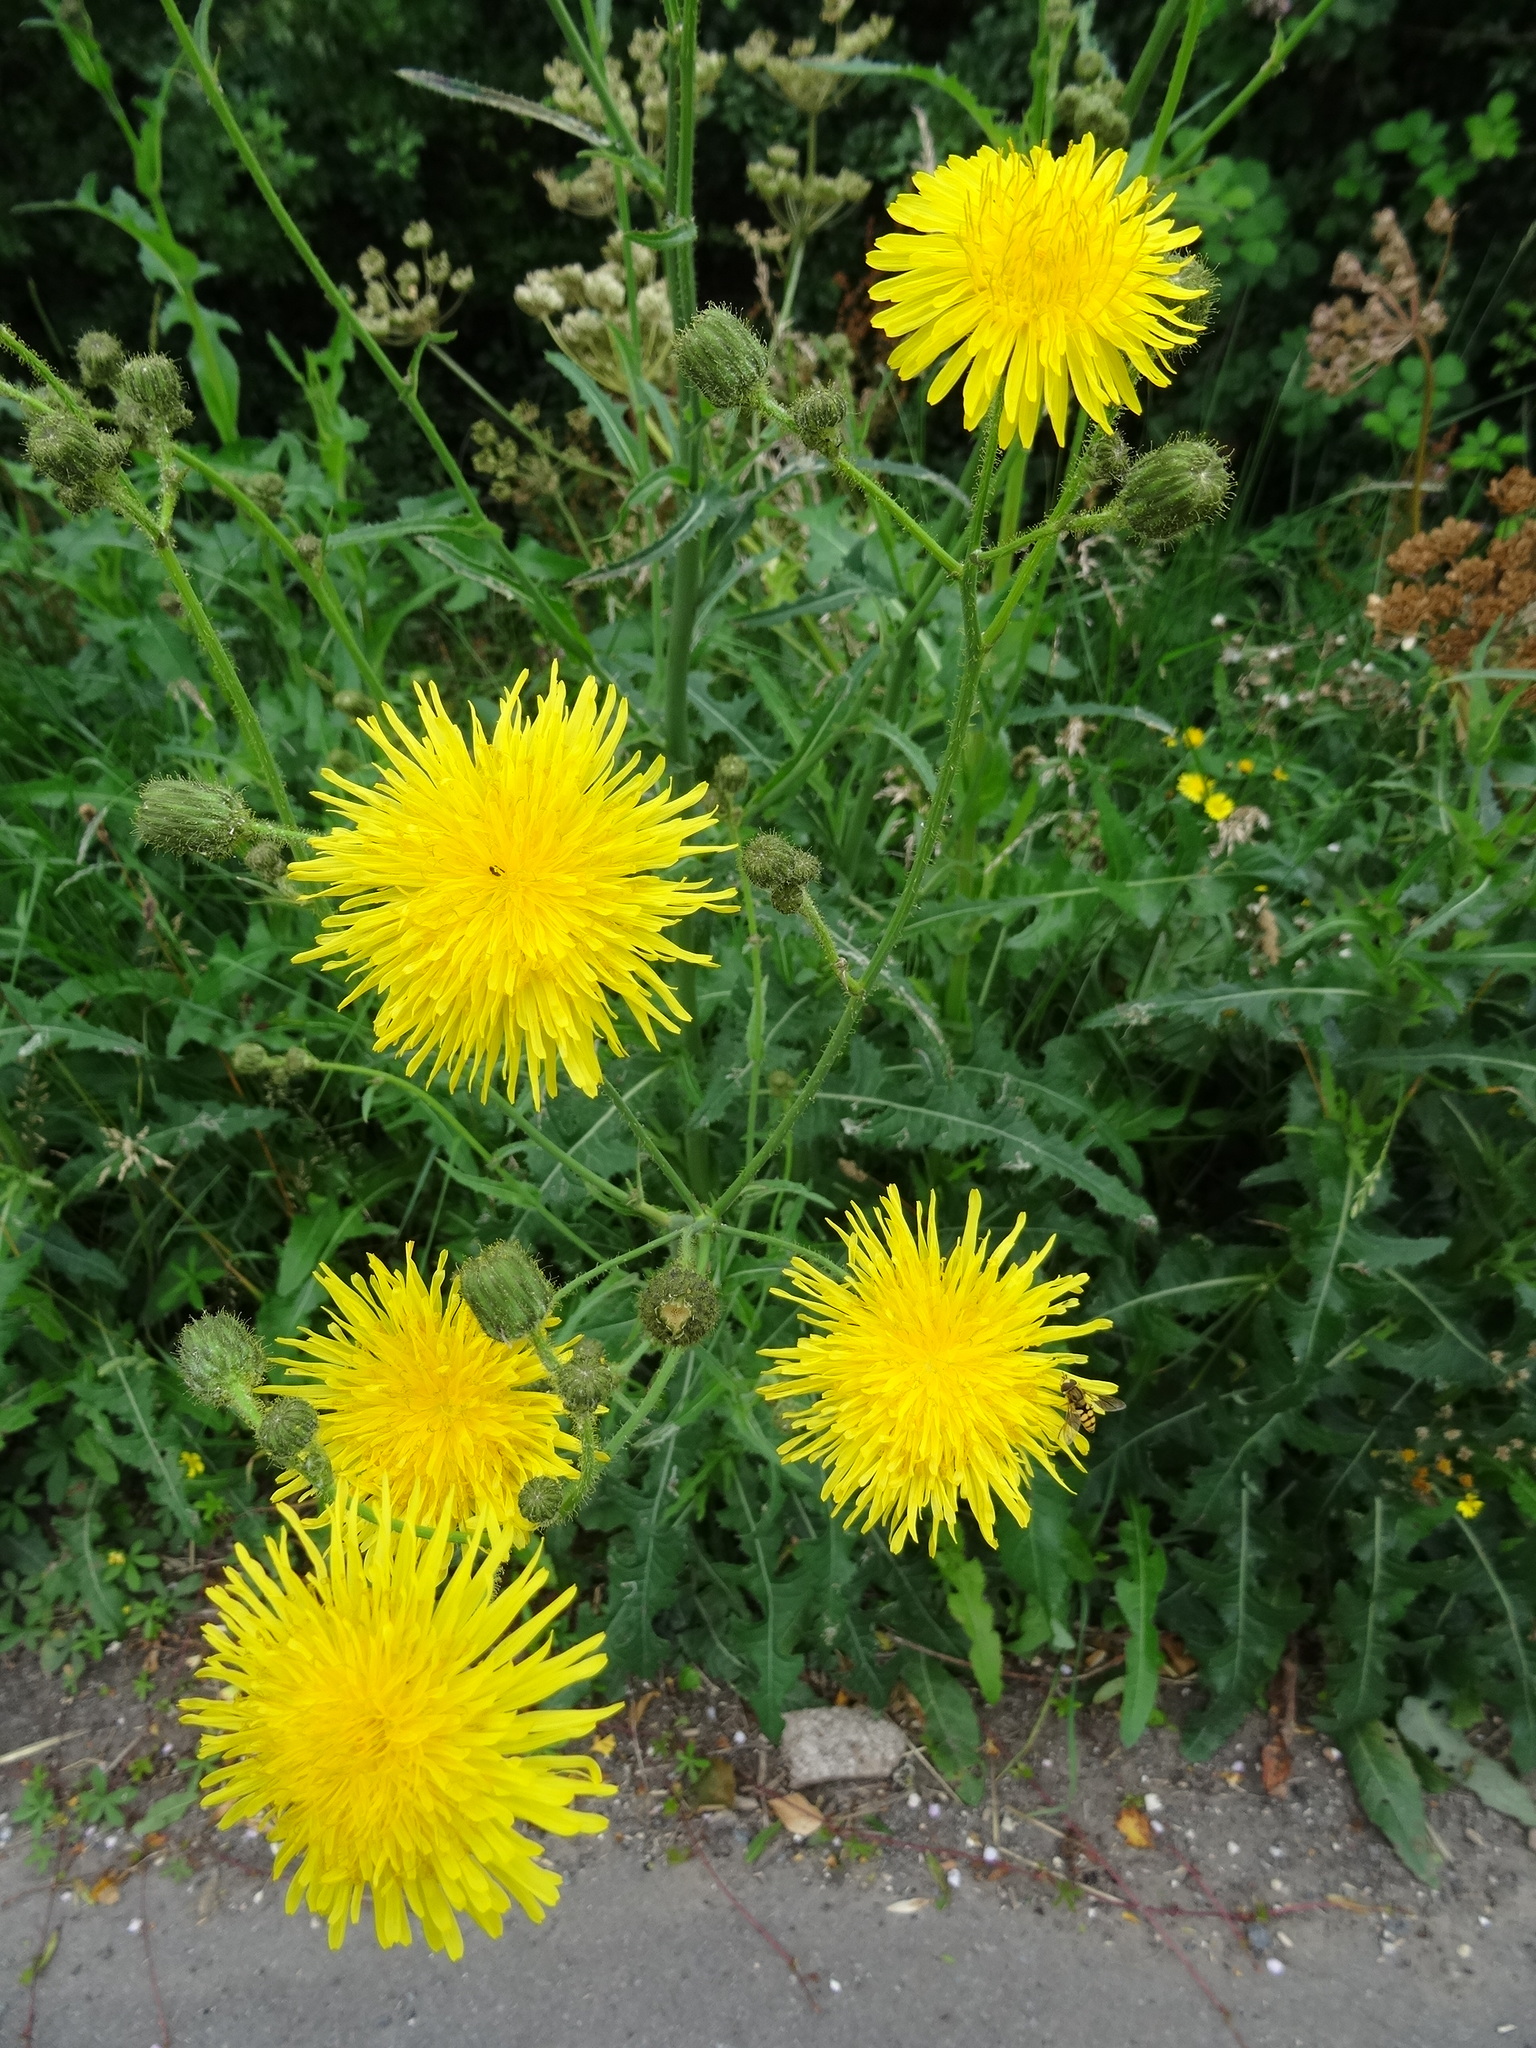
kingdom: Plantae
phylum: Tracheophyta
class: Magnoliopsida
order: Asterales
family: Asteraceae
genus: Sonchus
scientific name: Sonchus arvensis
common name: Perennial sow-thistle
